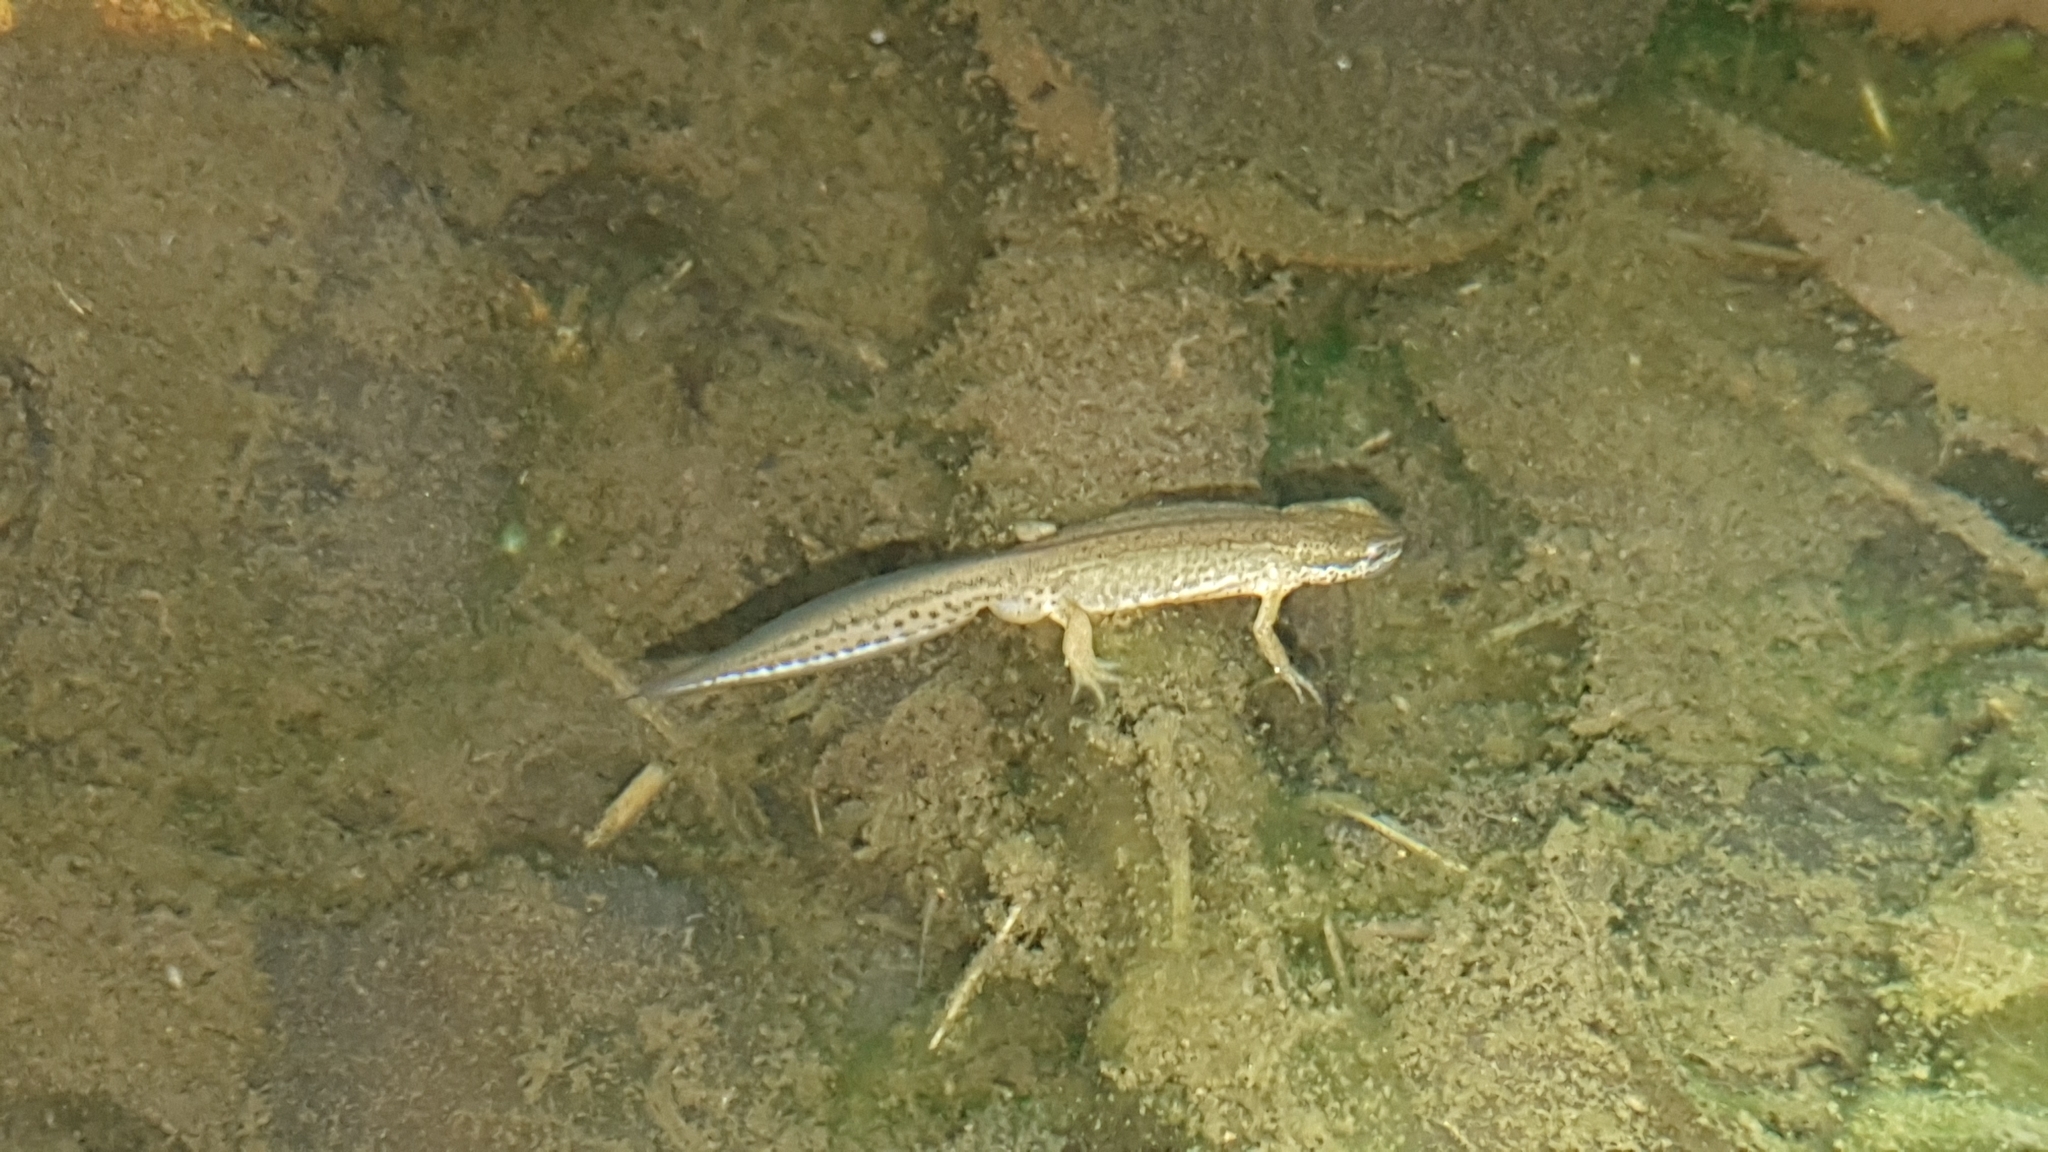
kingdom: Animalia
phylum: Chordata
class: Amphibia
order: Caudata
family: Salamandridae
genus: Lissotriton
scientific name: Lissotriton helveticus
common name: Palmate newt
